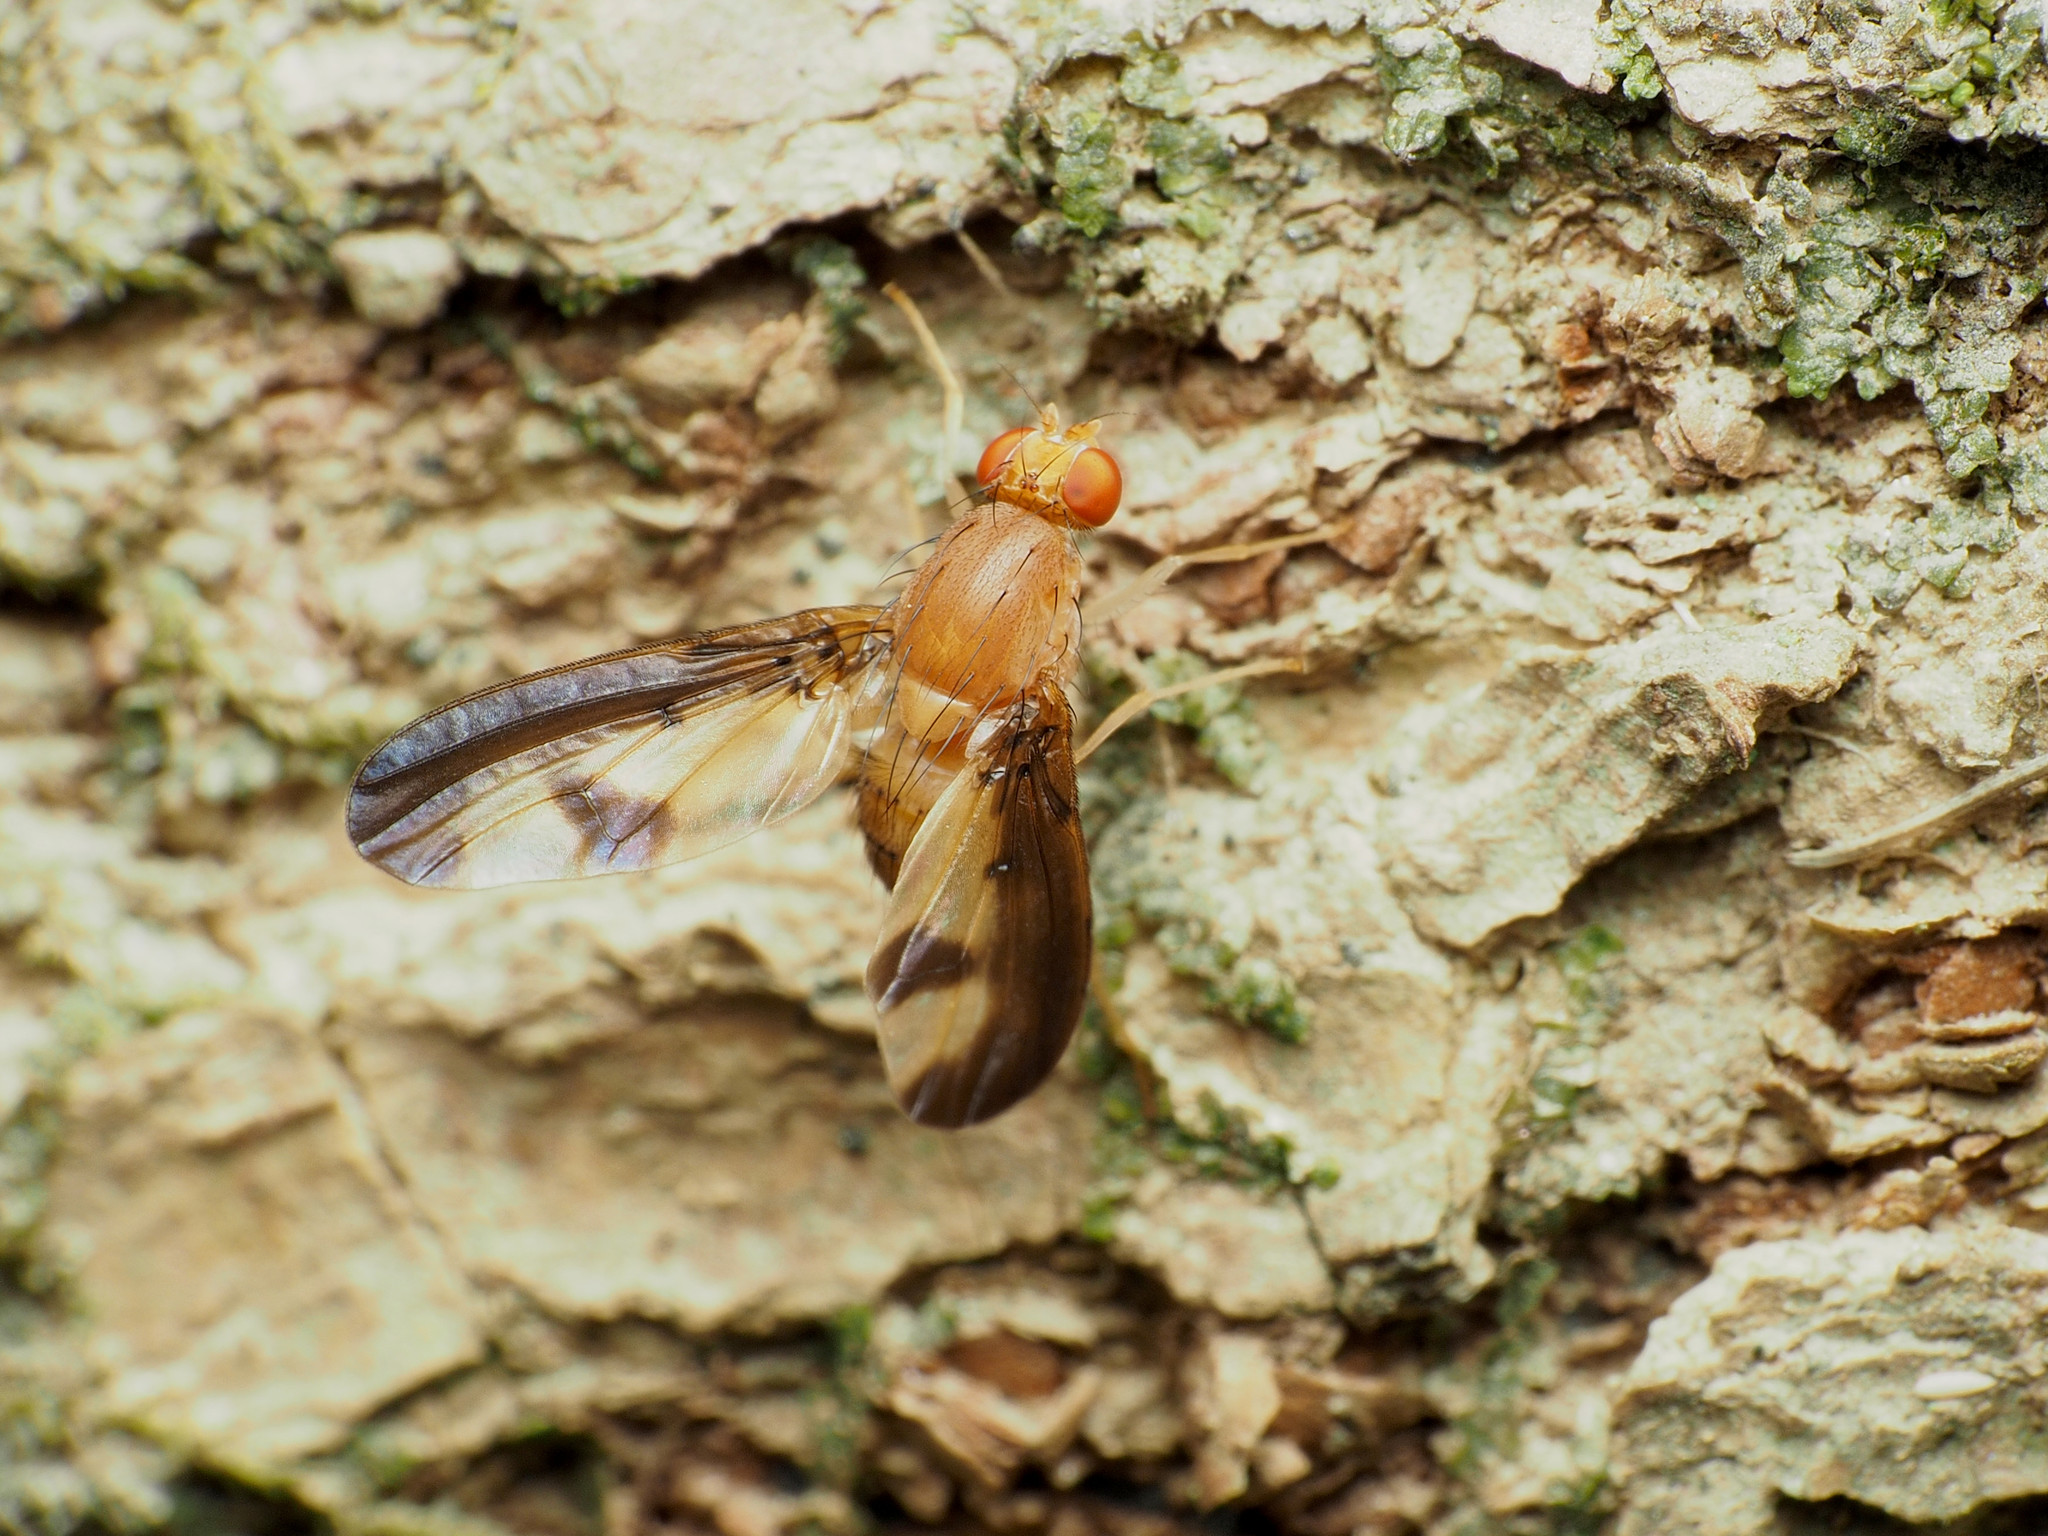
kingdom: Animalia
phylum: Arthropoda
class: Insecta
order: Diptera
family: Pallopteridae
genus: Toxonevra
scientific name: Toxonevra superba
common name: Antlered flutter fly
